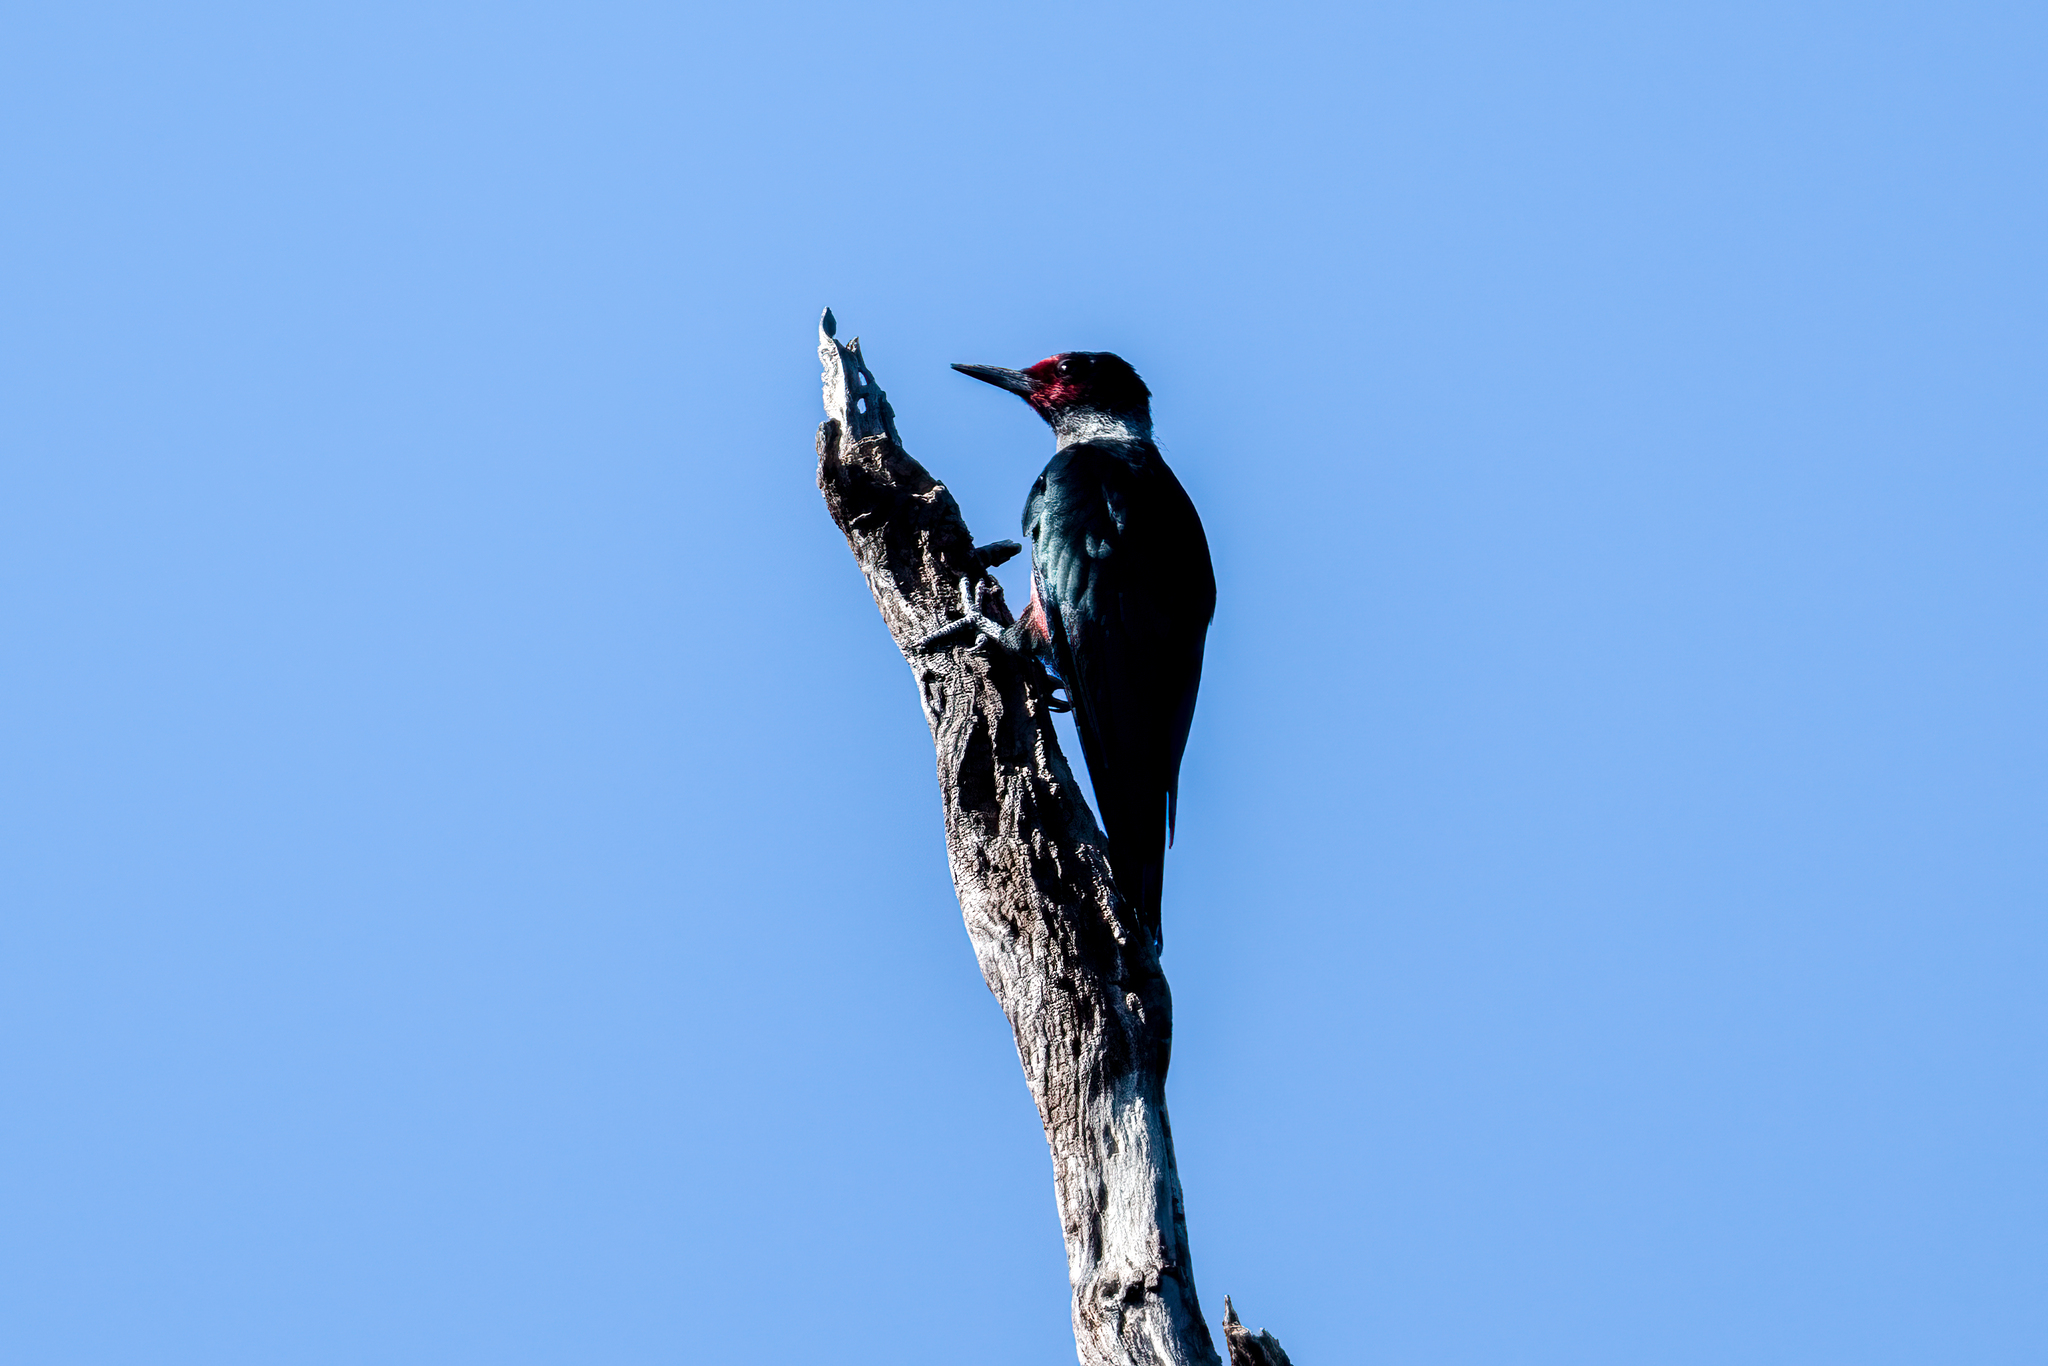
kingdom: Animalia
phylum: Chordata
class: Aves
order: Piciformes
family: Picidae
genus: Melanerpes
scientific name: Melanerpes lewis
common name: Lewis's woodpecker
